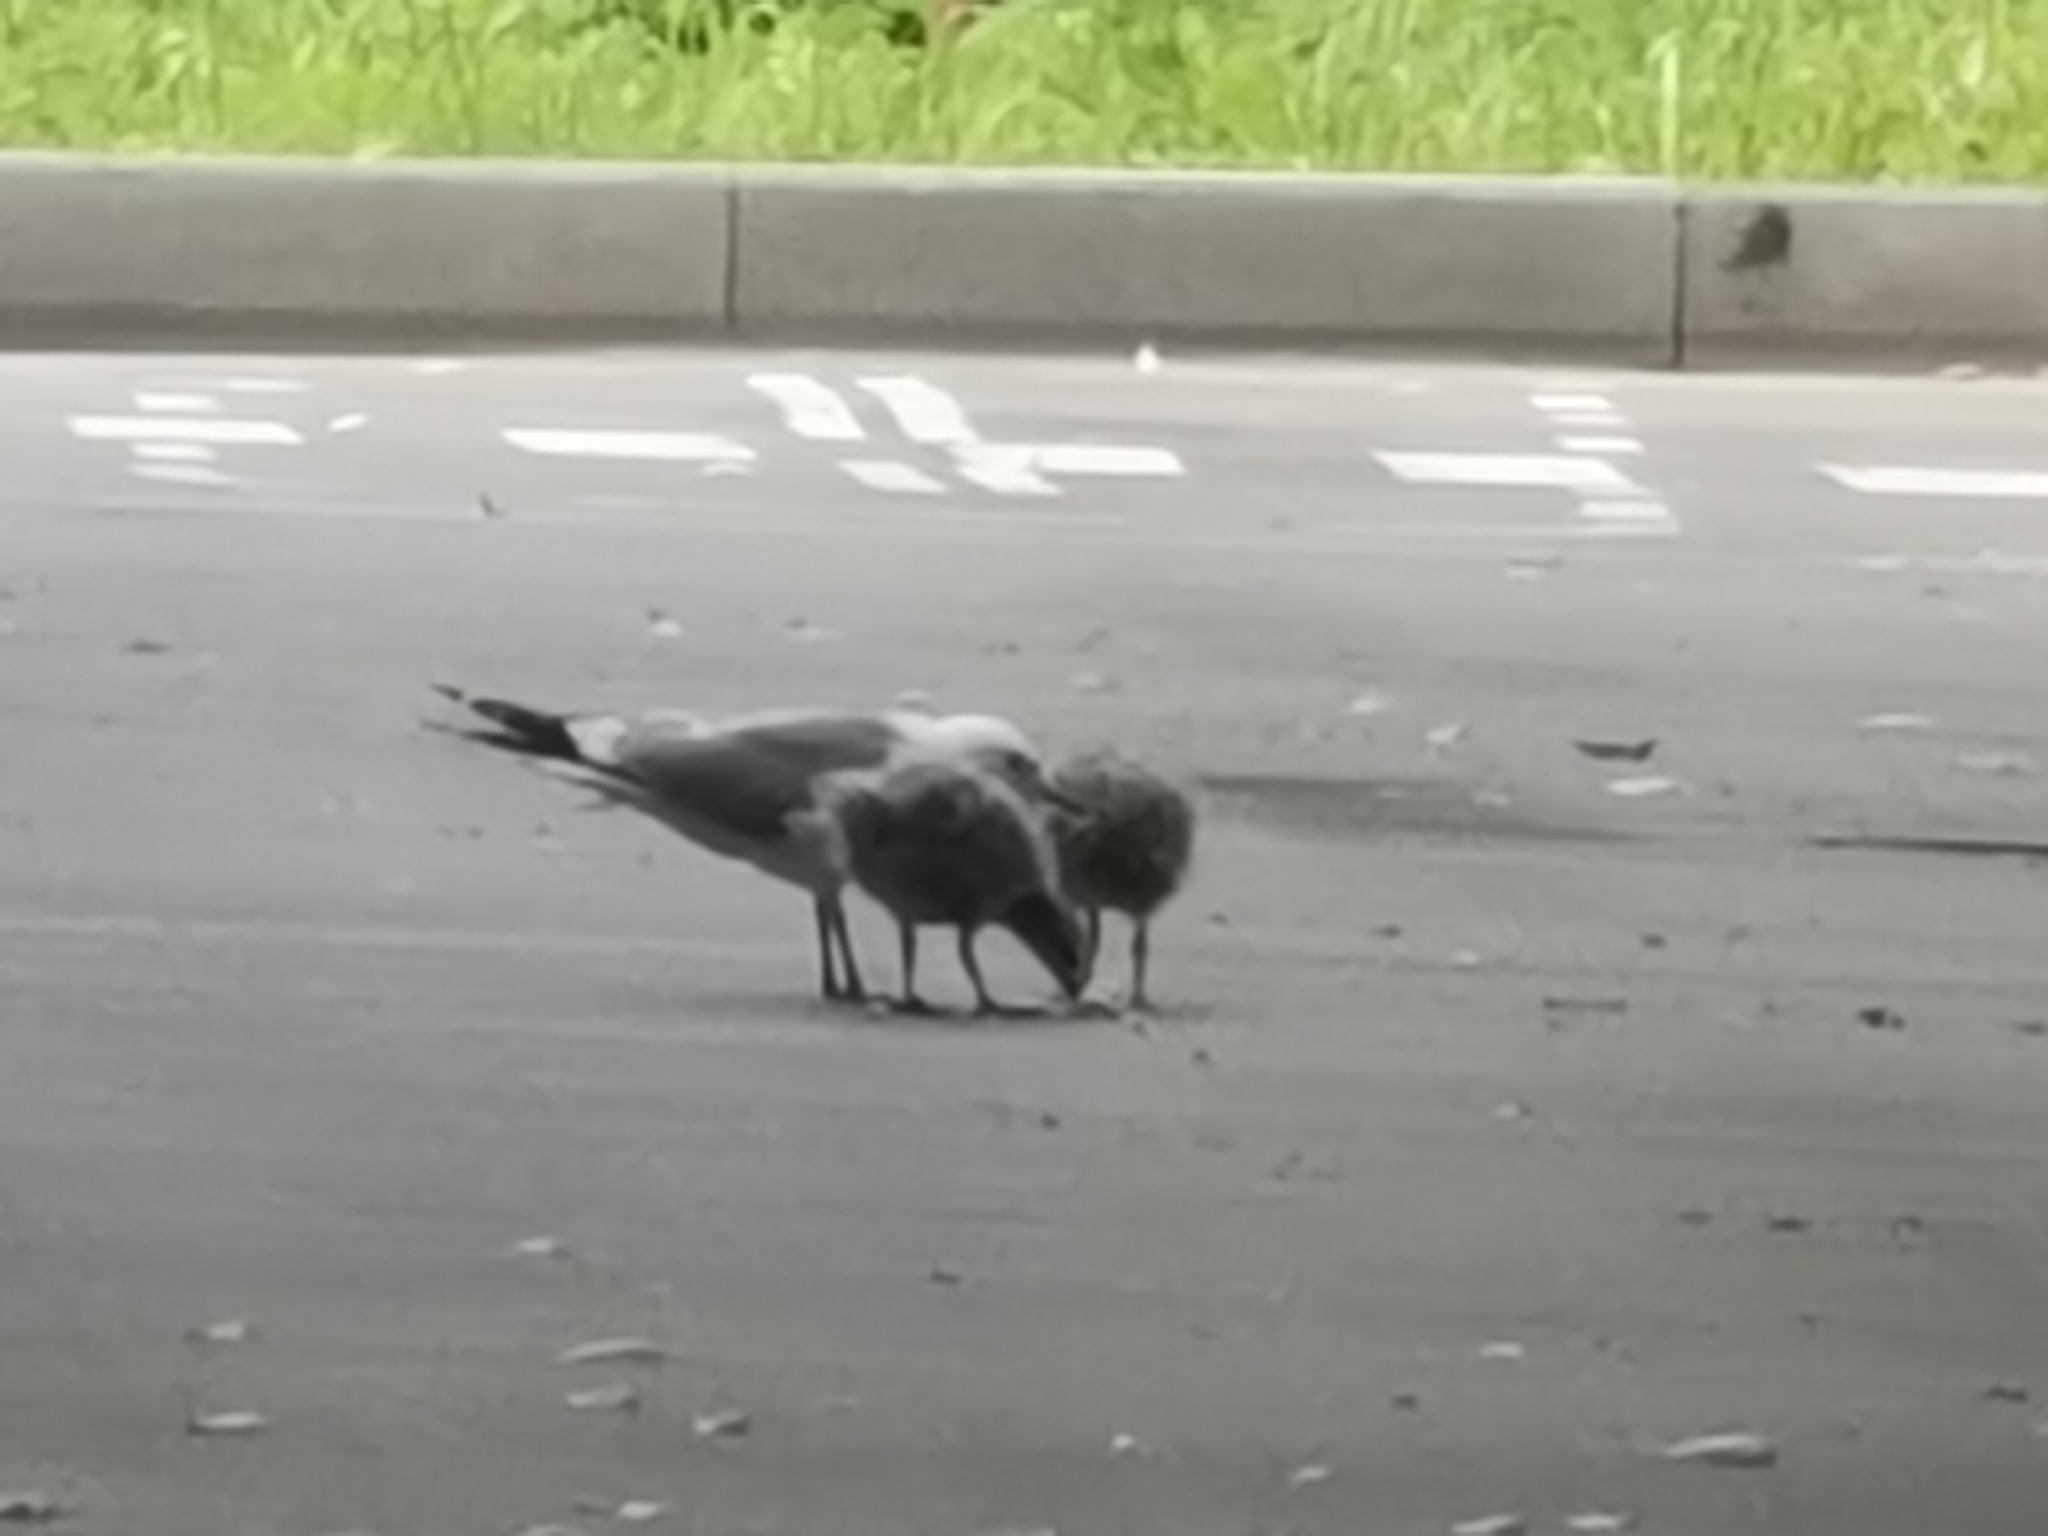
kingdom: Animalia
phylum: Chordata
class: Aves
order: Charadriiformes
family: Laridae
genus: Larus
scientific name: Larus canus
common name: Mew gull
